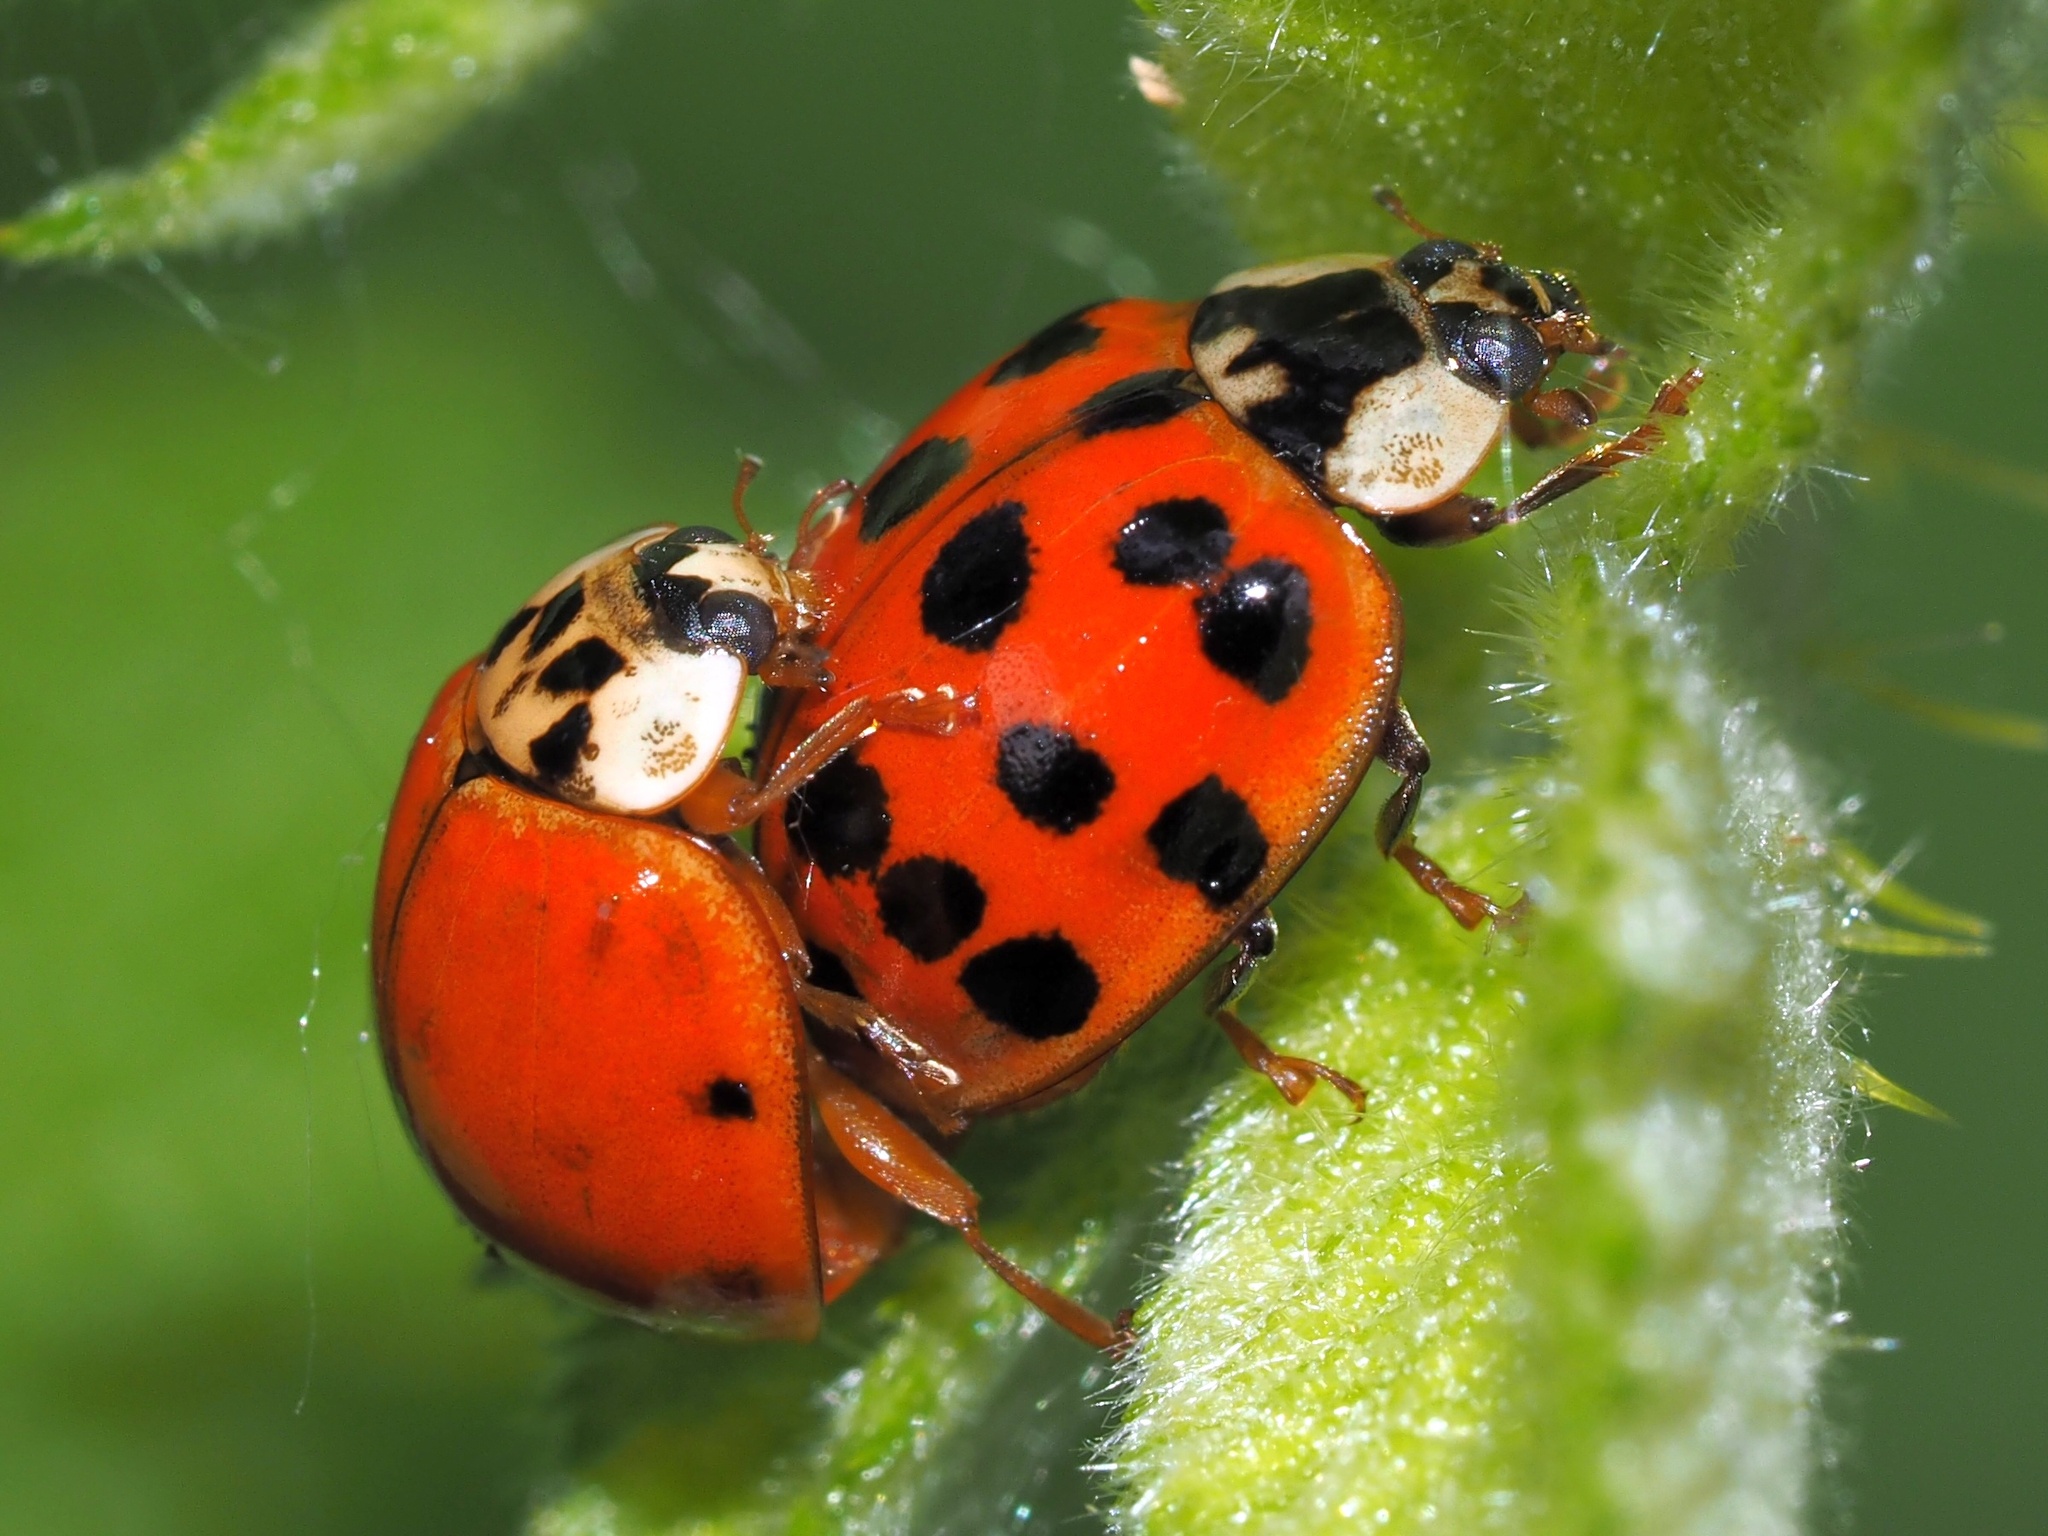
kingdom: Animalia
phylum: Arthropoda
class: Insecta
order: Coleoptera
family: Coccinellidae
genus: Harmonia
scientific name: Harmonia axyridis
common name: Harlequin ladybird
